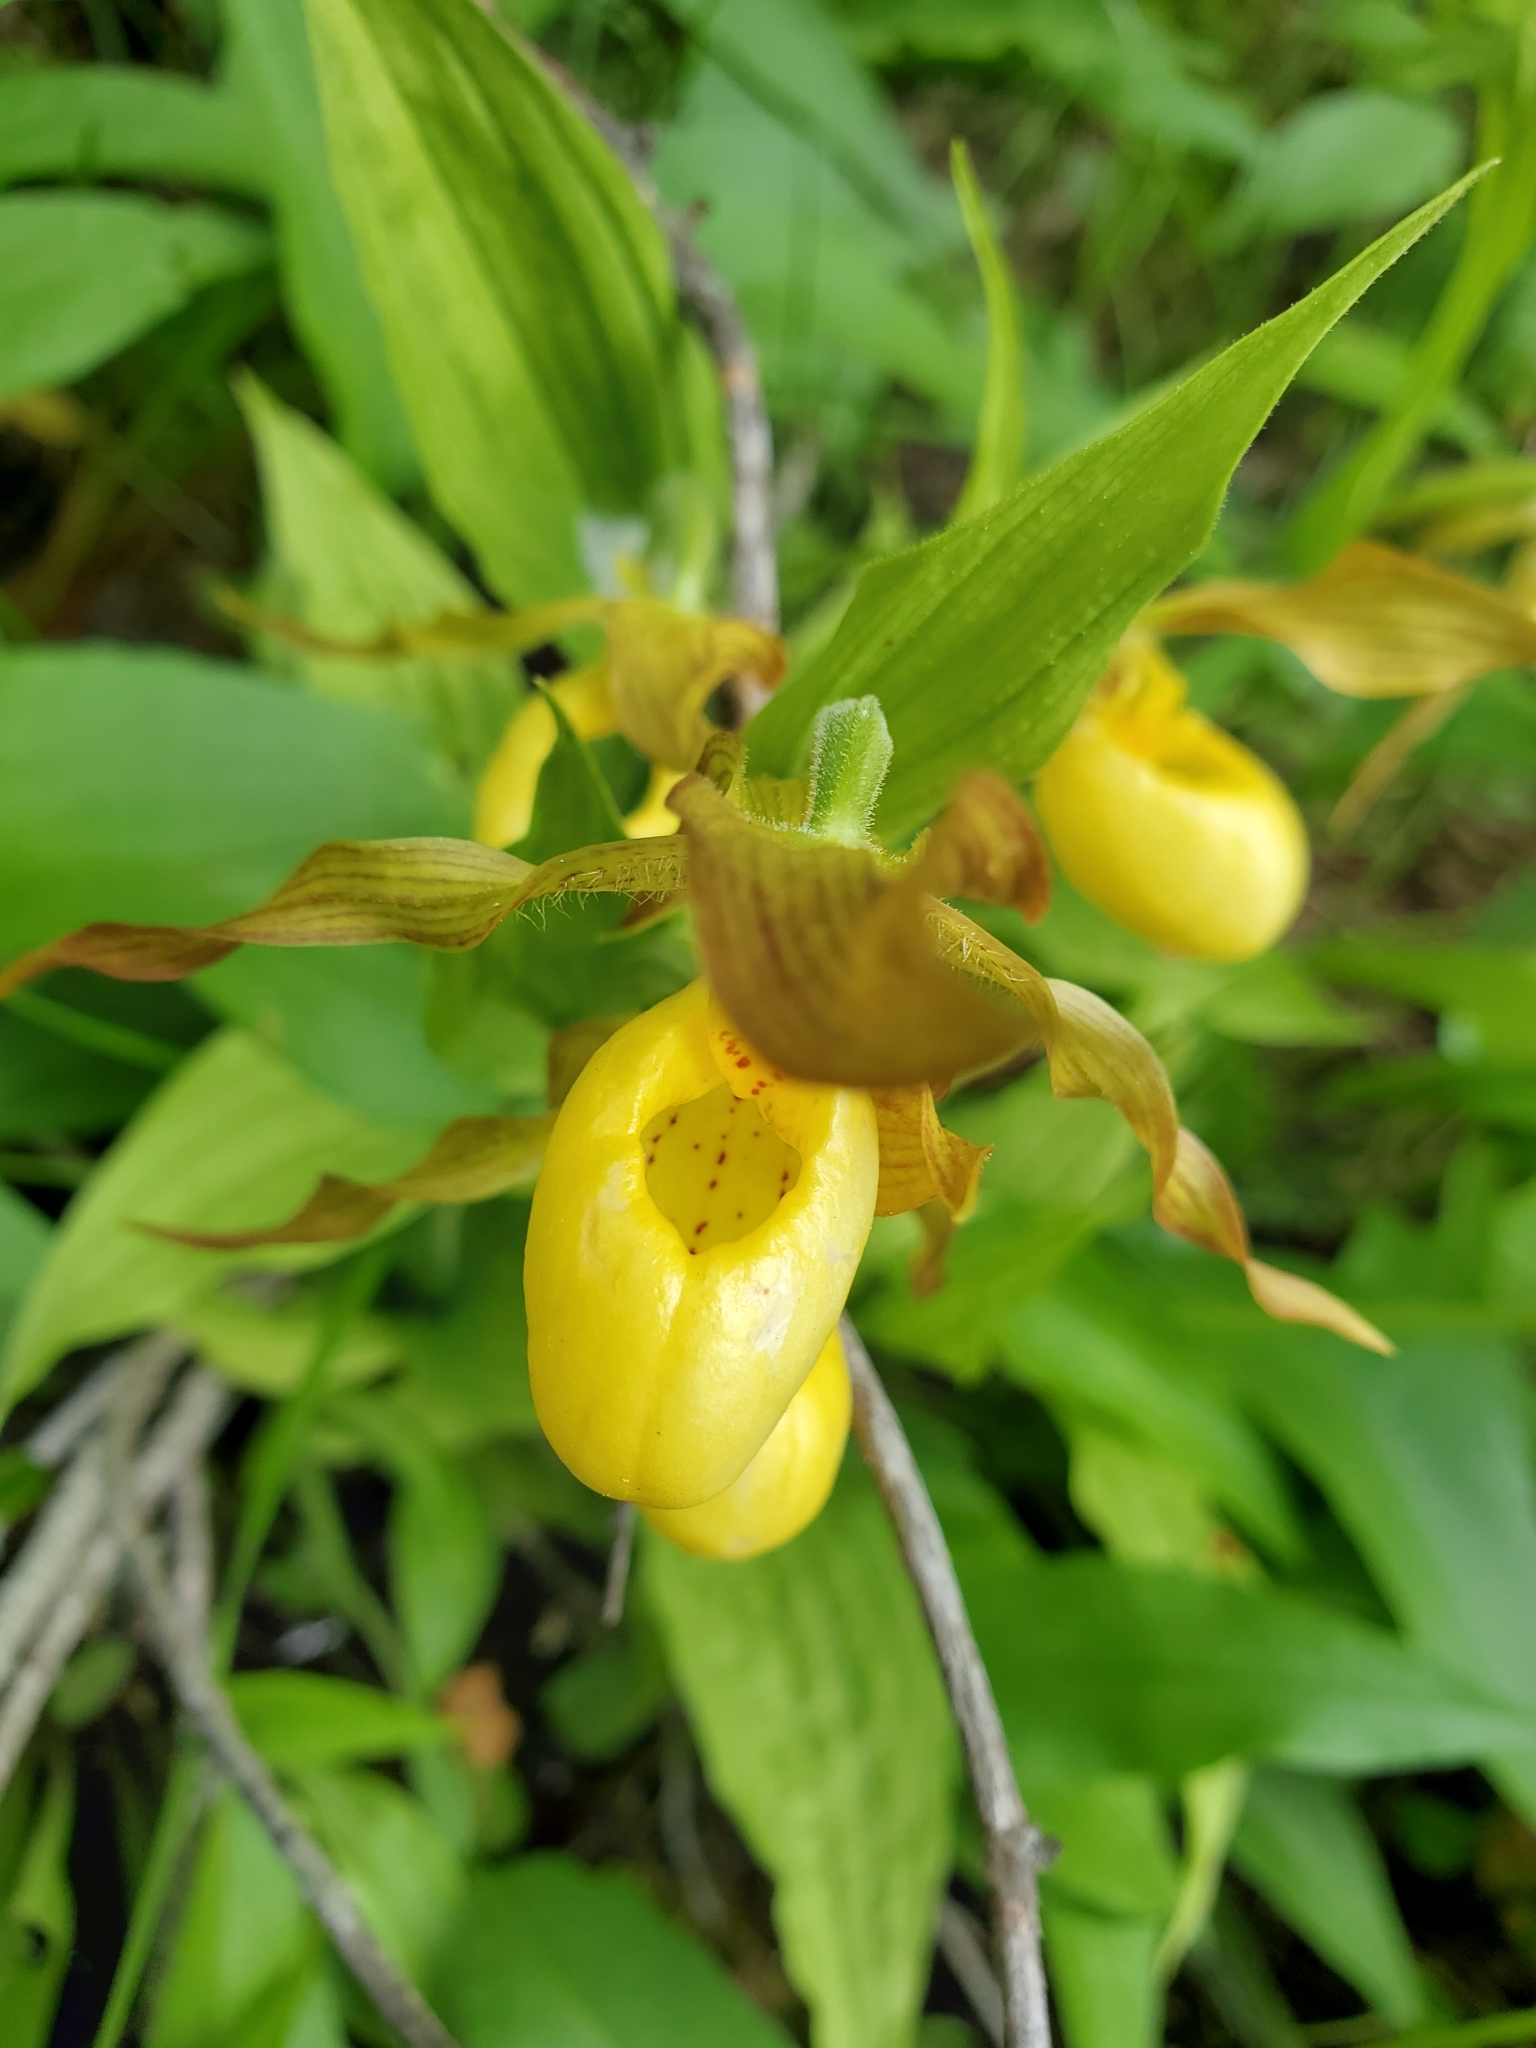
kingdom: Plantae
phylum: Tracheophyta
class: Liliopsida
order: Asparagales
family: Orchidaceae
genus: Cypripedium
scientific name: Cypripedium parviflorum
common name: American yellow lady's-slipper
